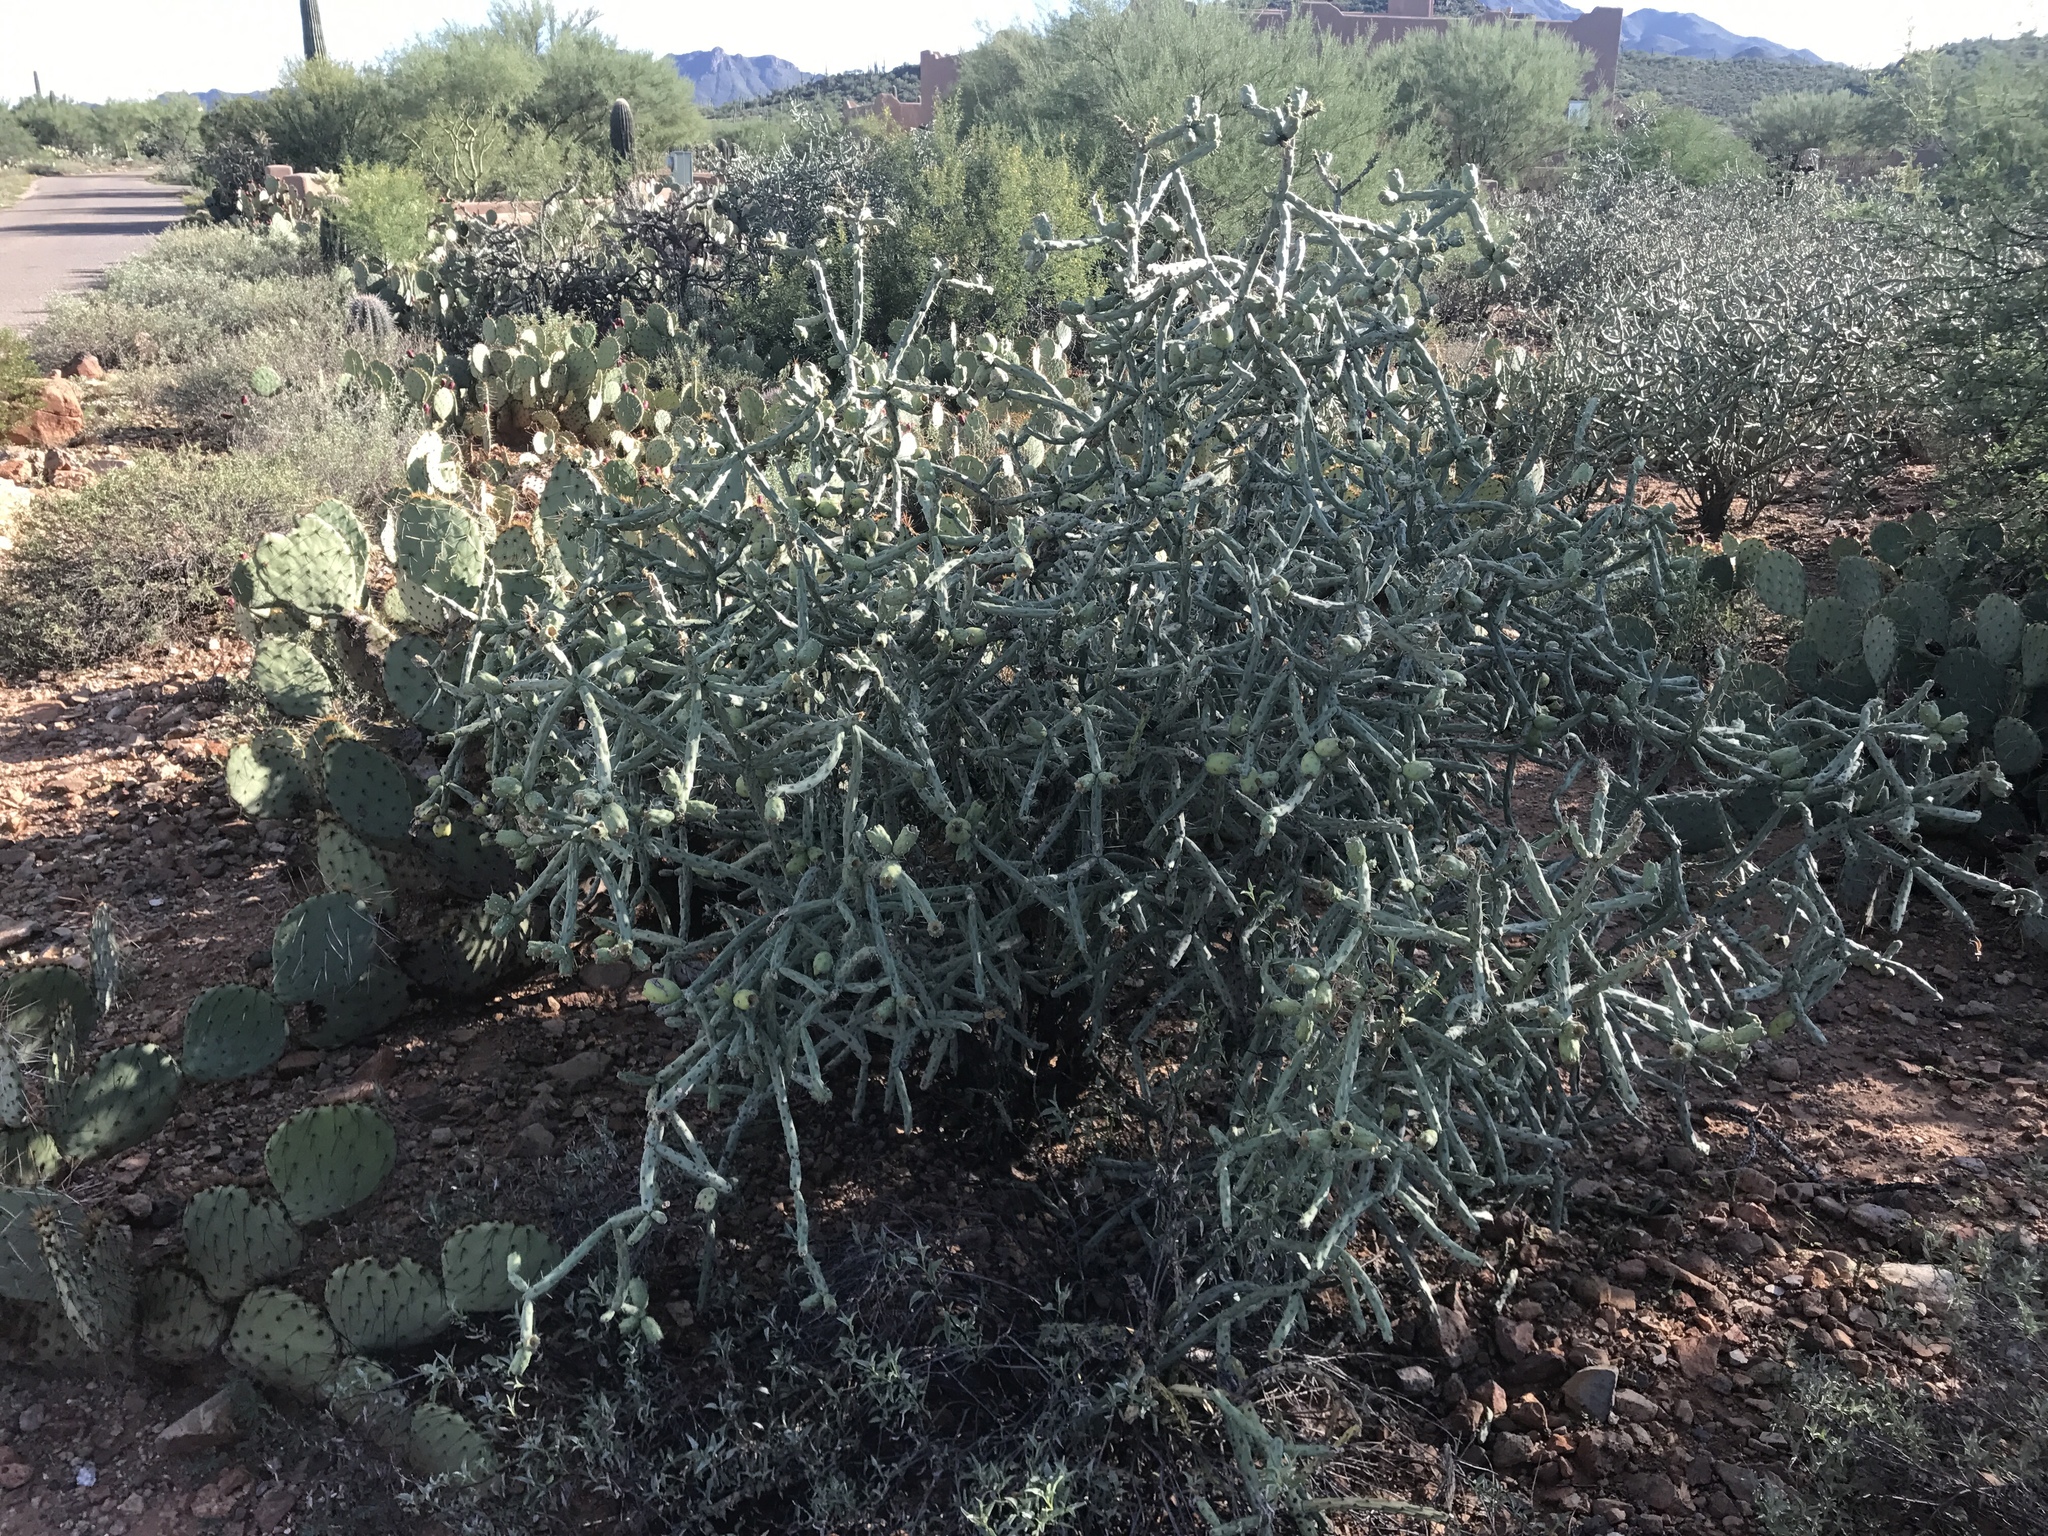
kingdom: Plantae
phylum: Tracheophyta
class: Magnoliopsida
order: Caryophyllales
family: Cactaceae
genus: Cylindropuntia
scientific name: Cylindropuntia arbuscula
